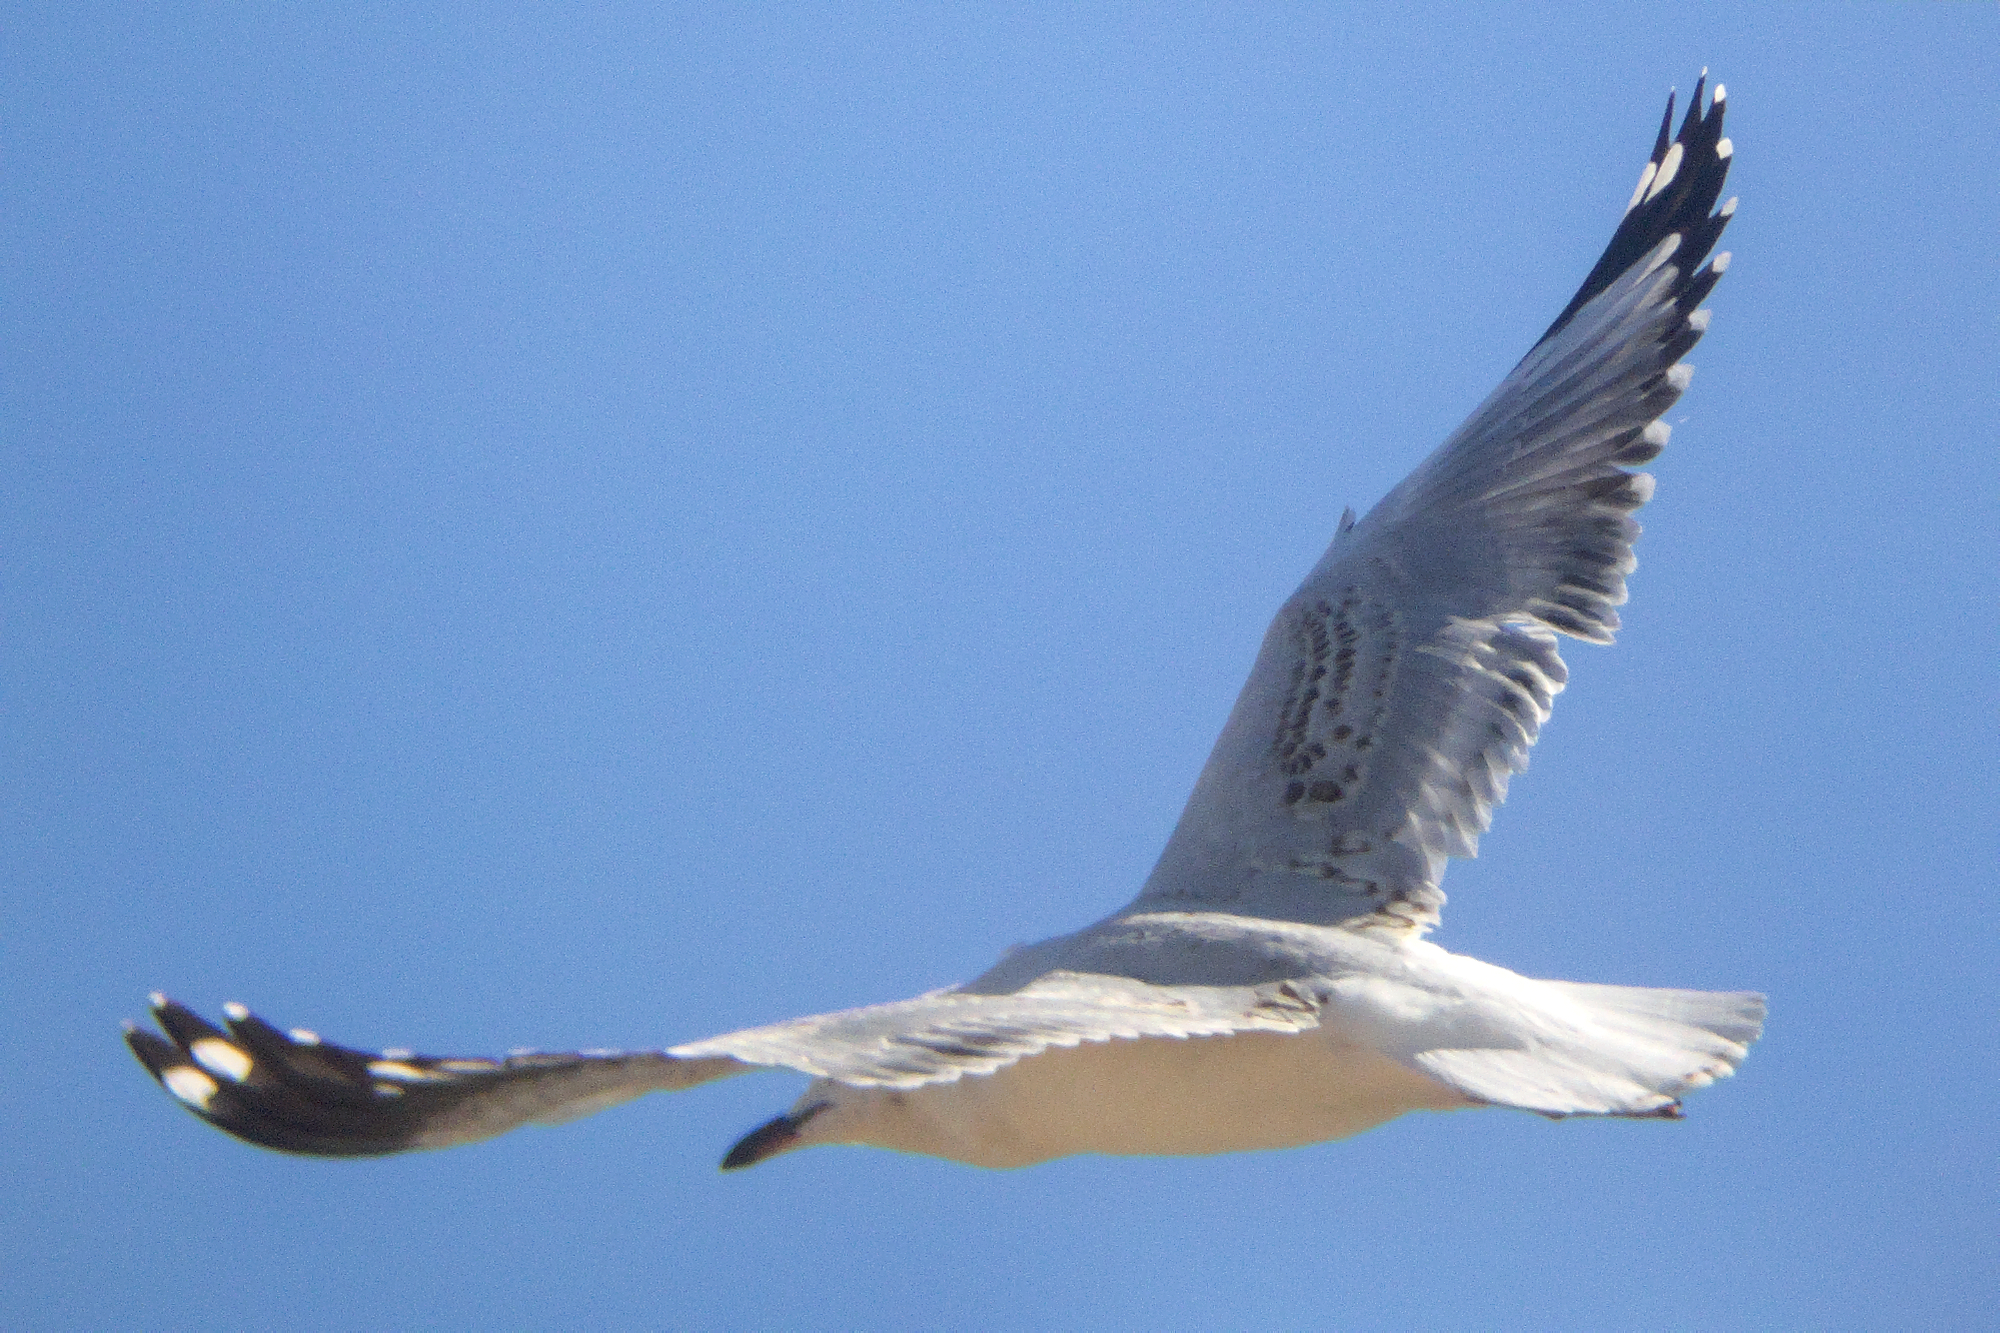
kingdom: Animalia
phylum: Chordata
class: Aves
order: Charadriiformes
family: Laridae
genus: Chroicocephalus
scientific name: Chroicocephalus novaehollandiae
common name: Silver gull
